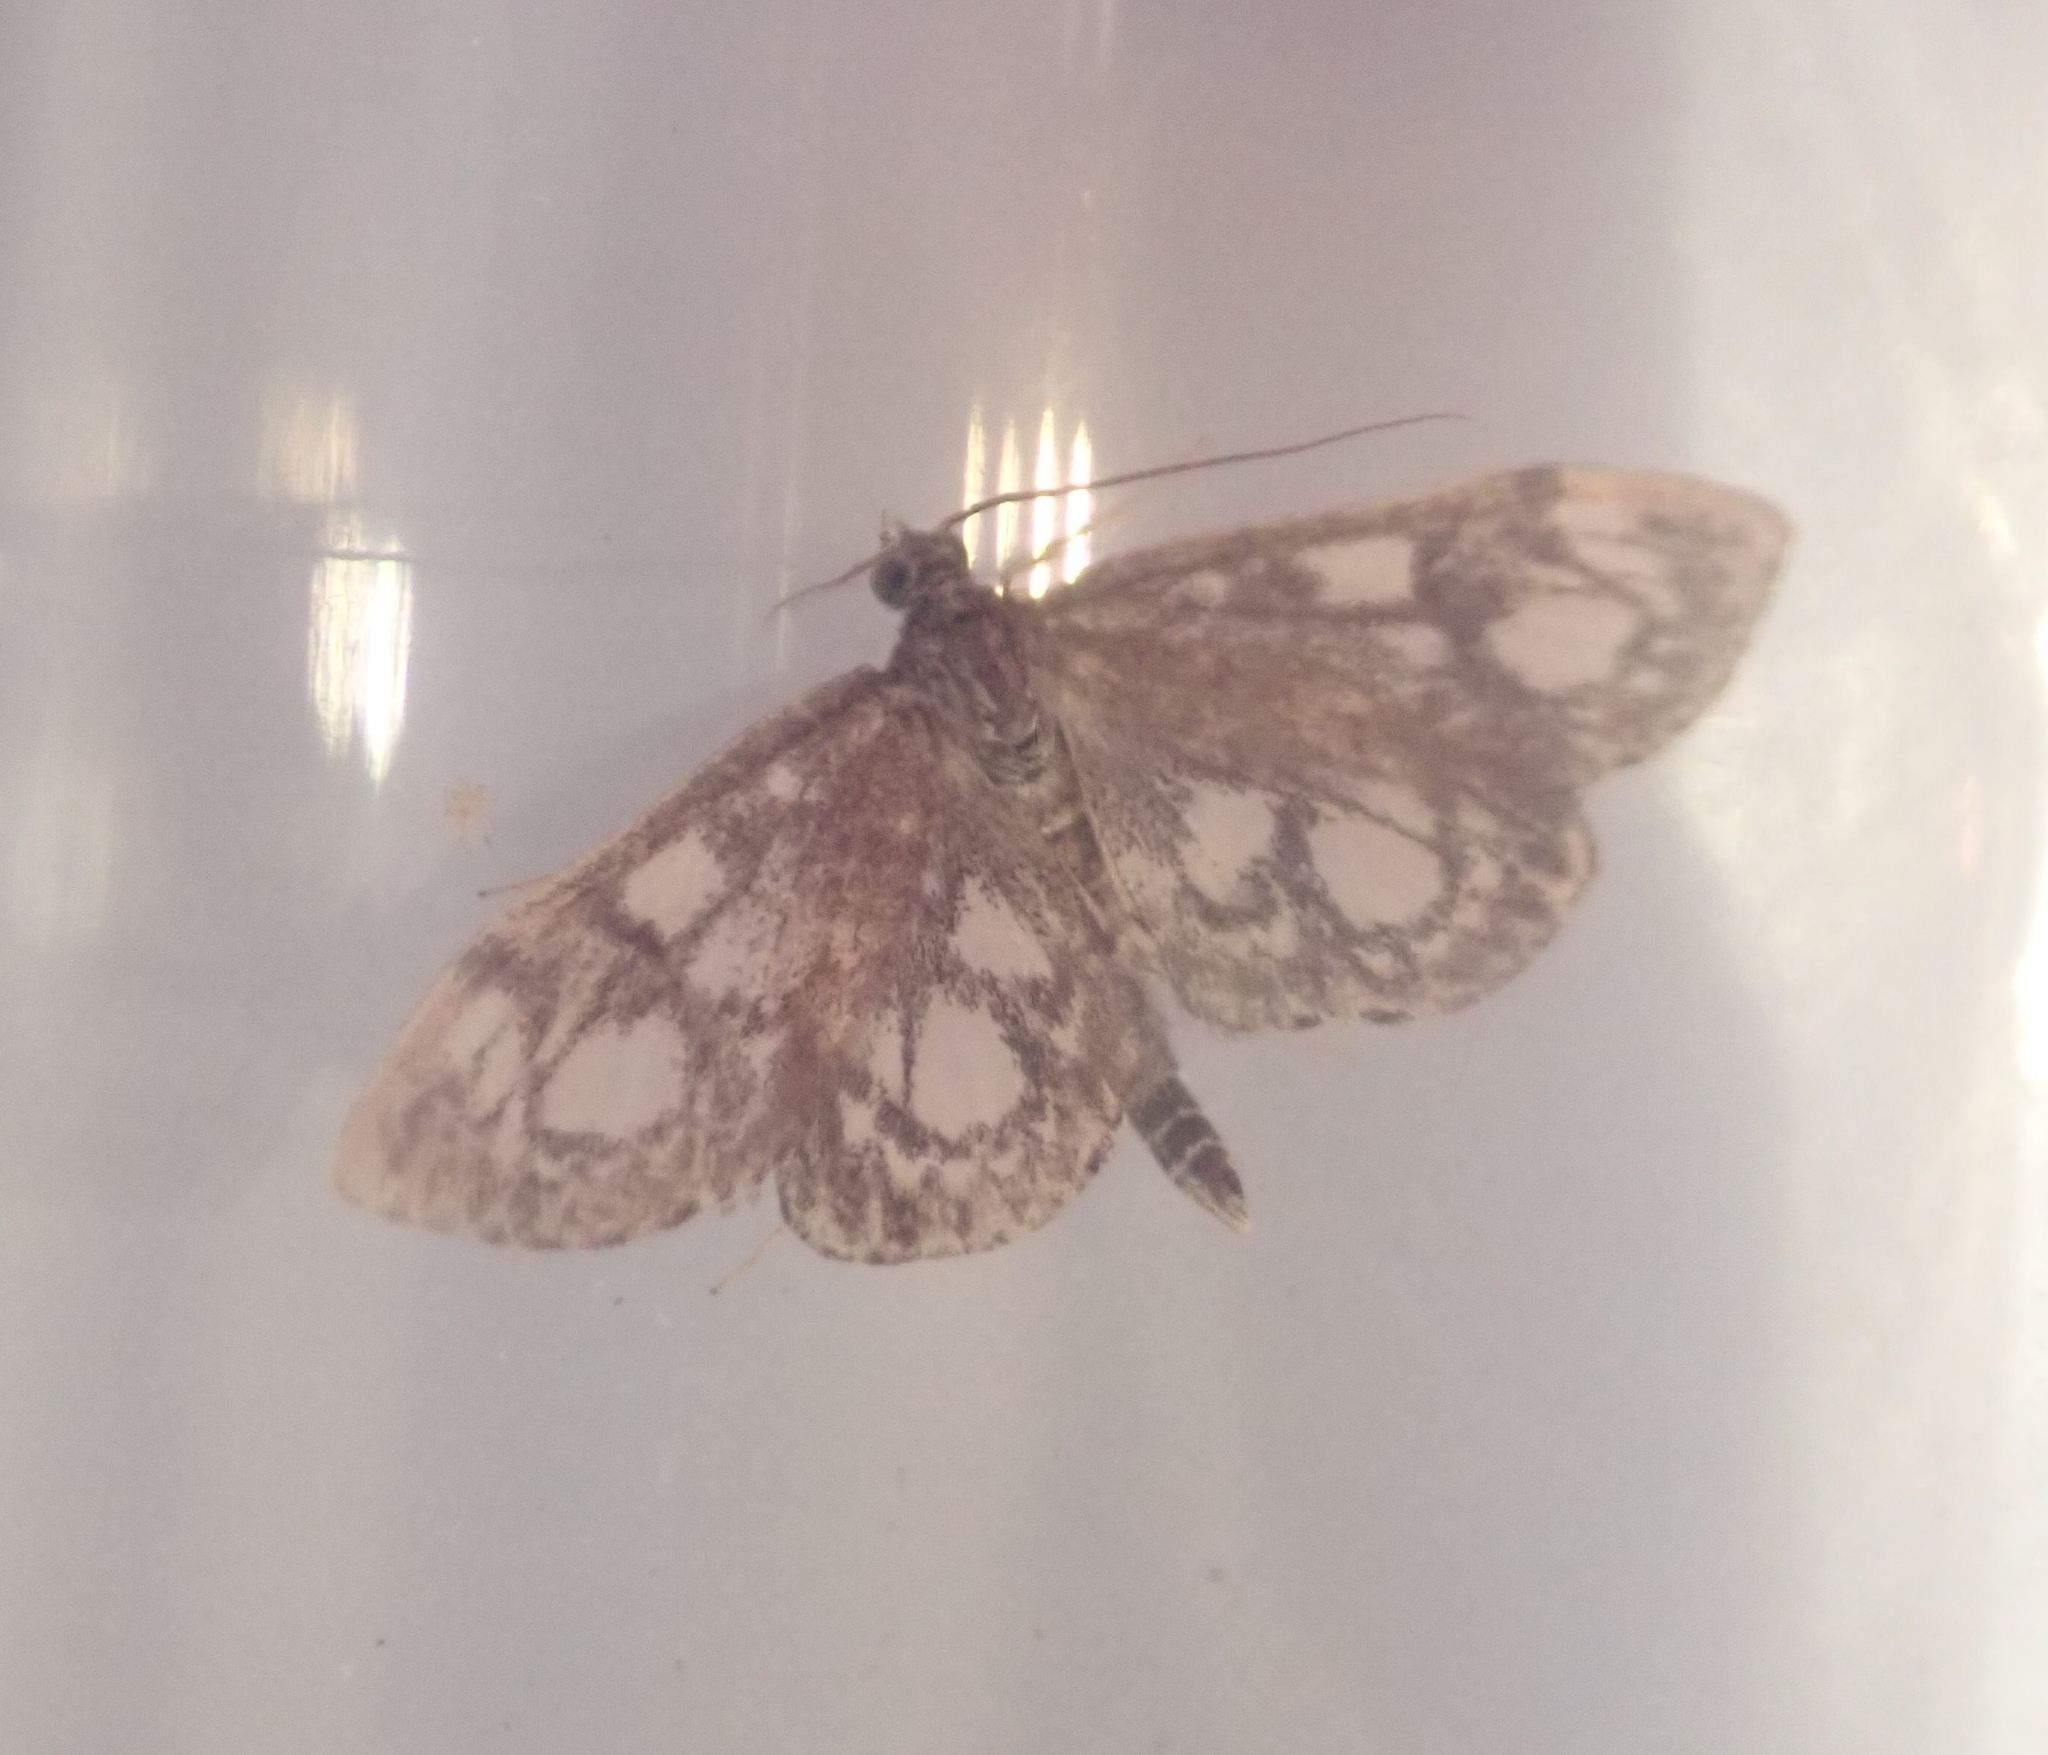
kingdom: Animalia
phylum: Arthropoda
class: Insecta
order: Lepidoptera
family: Crambidae
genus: Anania
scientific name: Anania coronata
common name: Elder pearl
